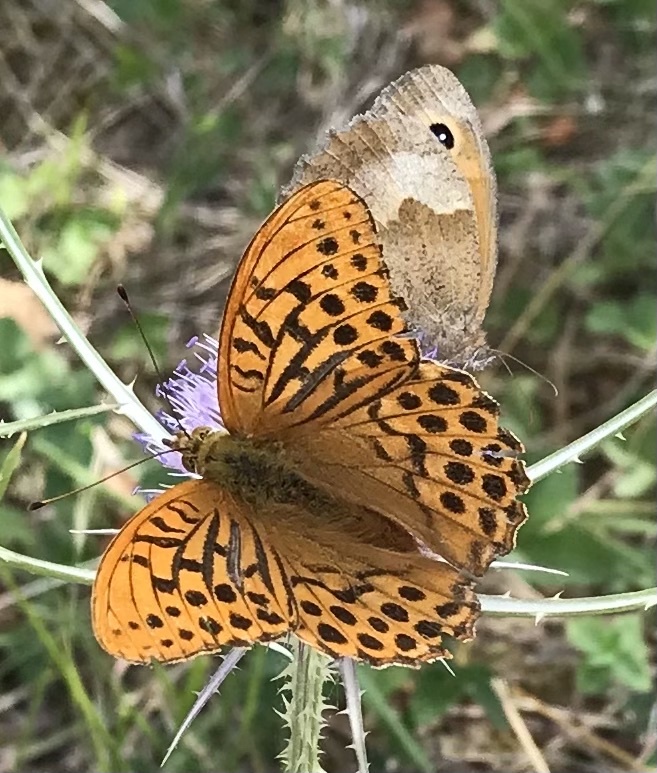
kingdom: Animalia
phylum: Arthropoda
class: Insecta
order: Lepidoptera
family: Nymphalidae
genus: Argynnis
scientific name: Argynnis paphia
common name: Silver-washed fritillary
